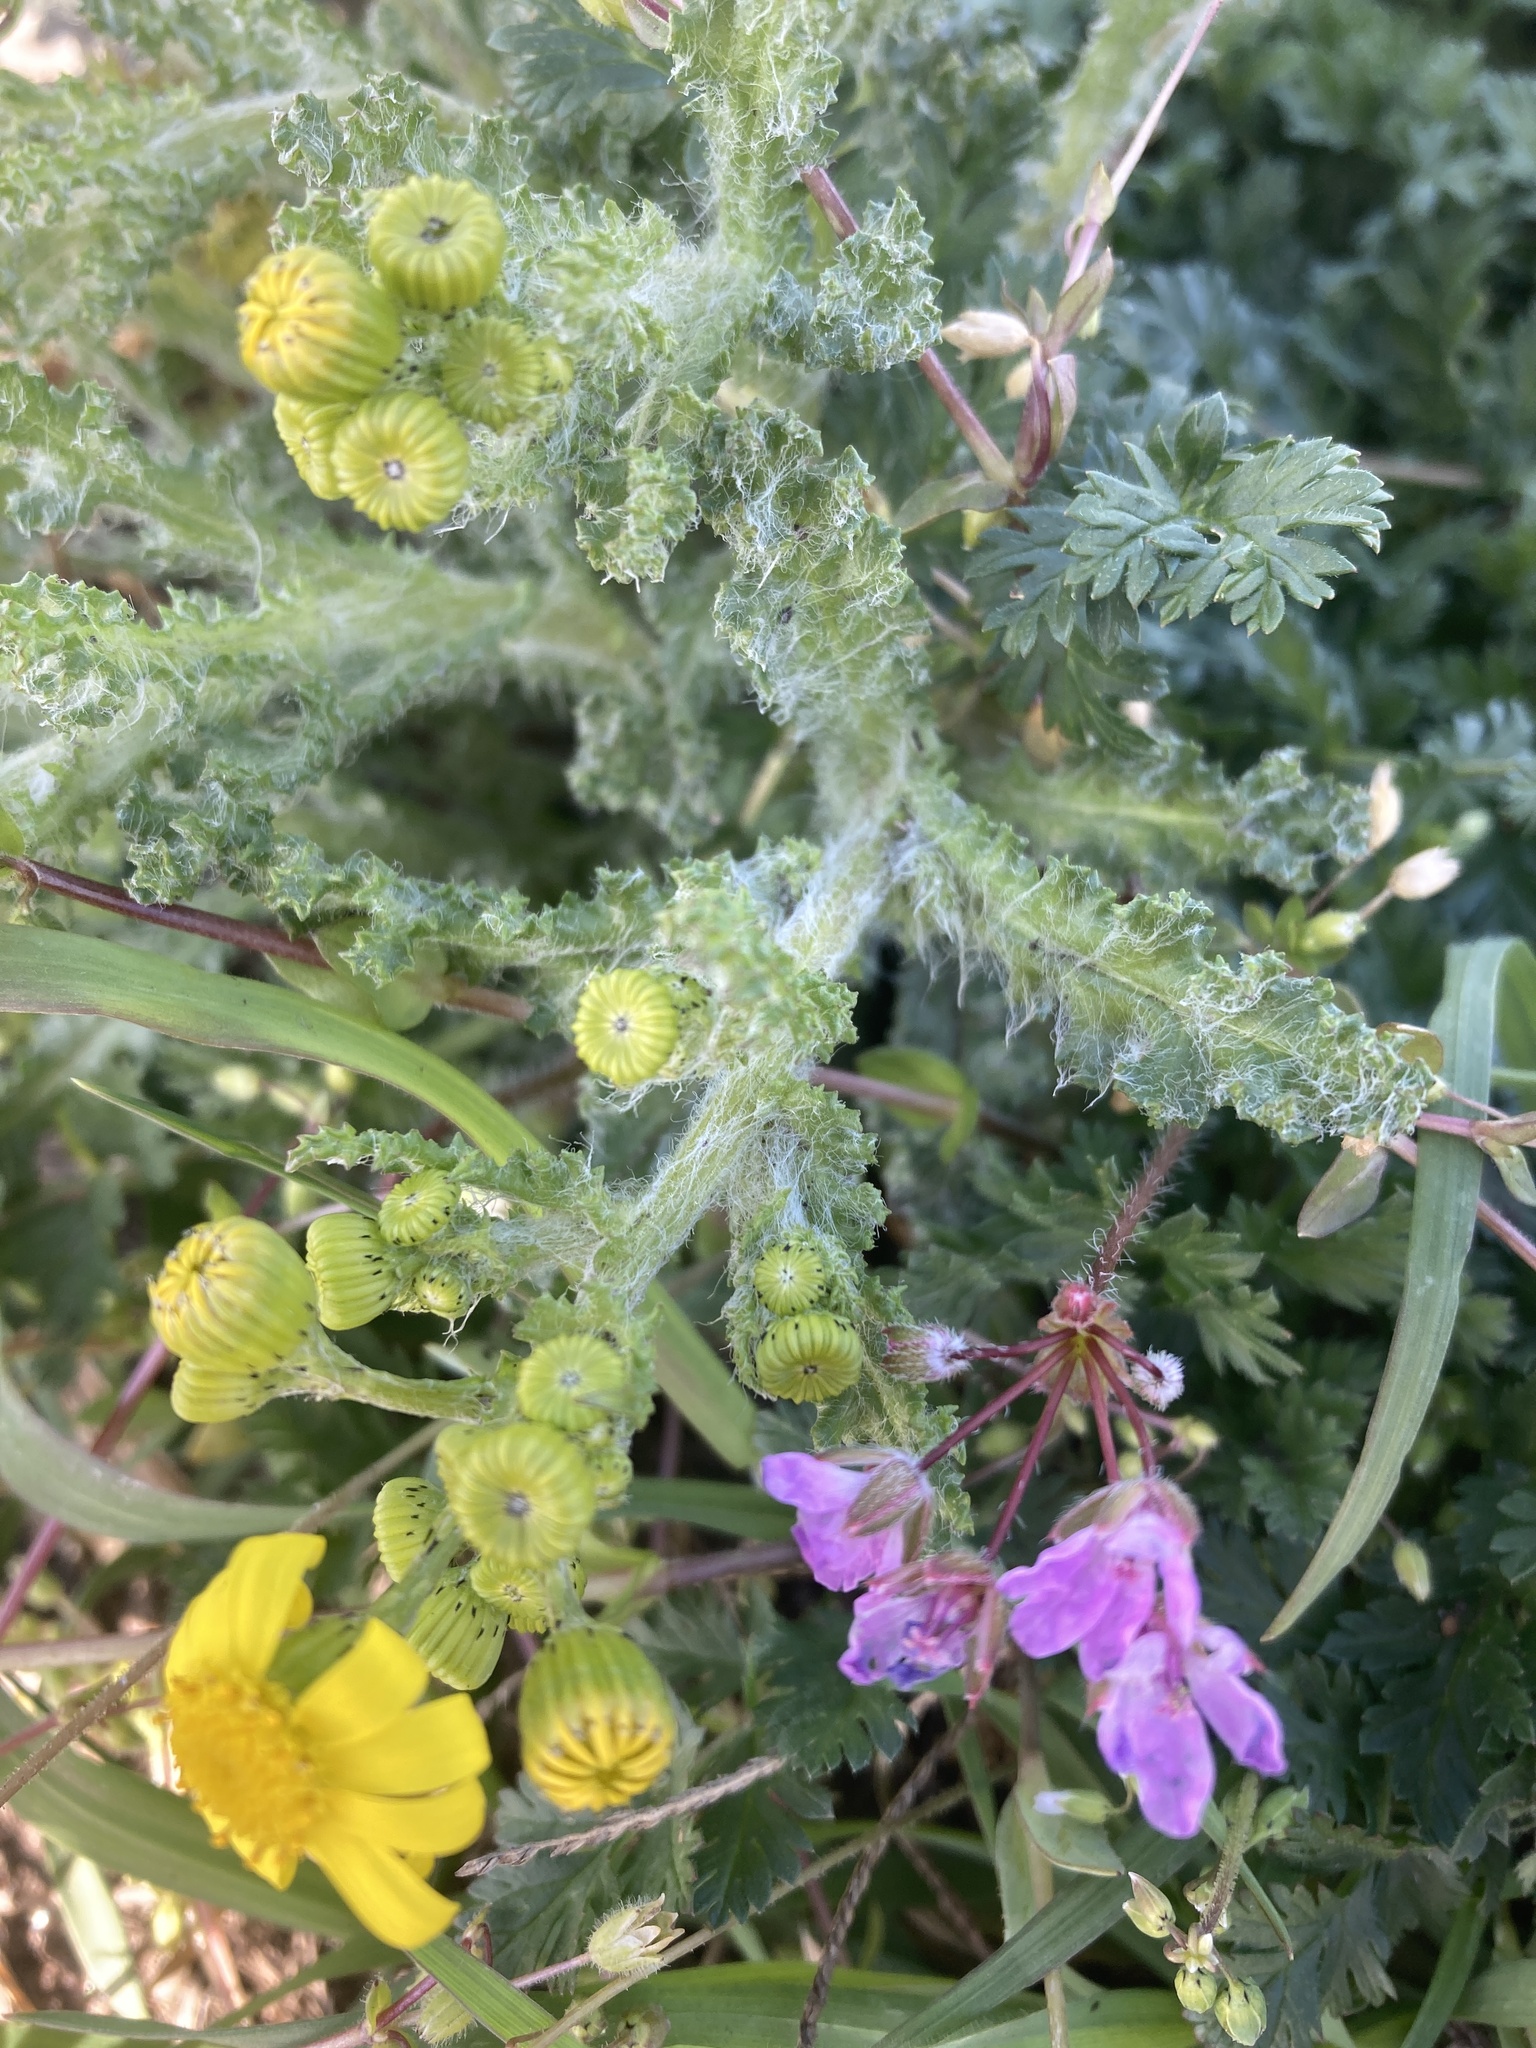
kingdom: Plantae
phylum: Tracheophyta
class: Magnoliopsida
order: Asterales
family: Asteraceae
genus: Senecio
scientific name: Senecio vernalis
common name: Eastern groundsel
